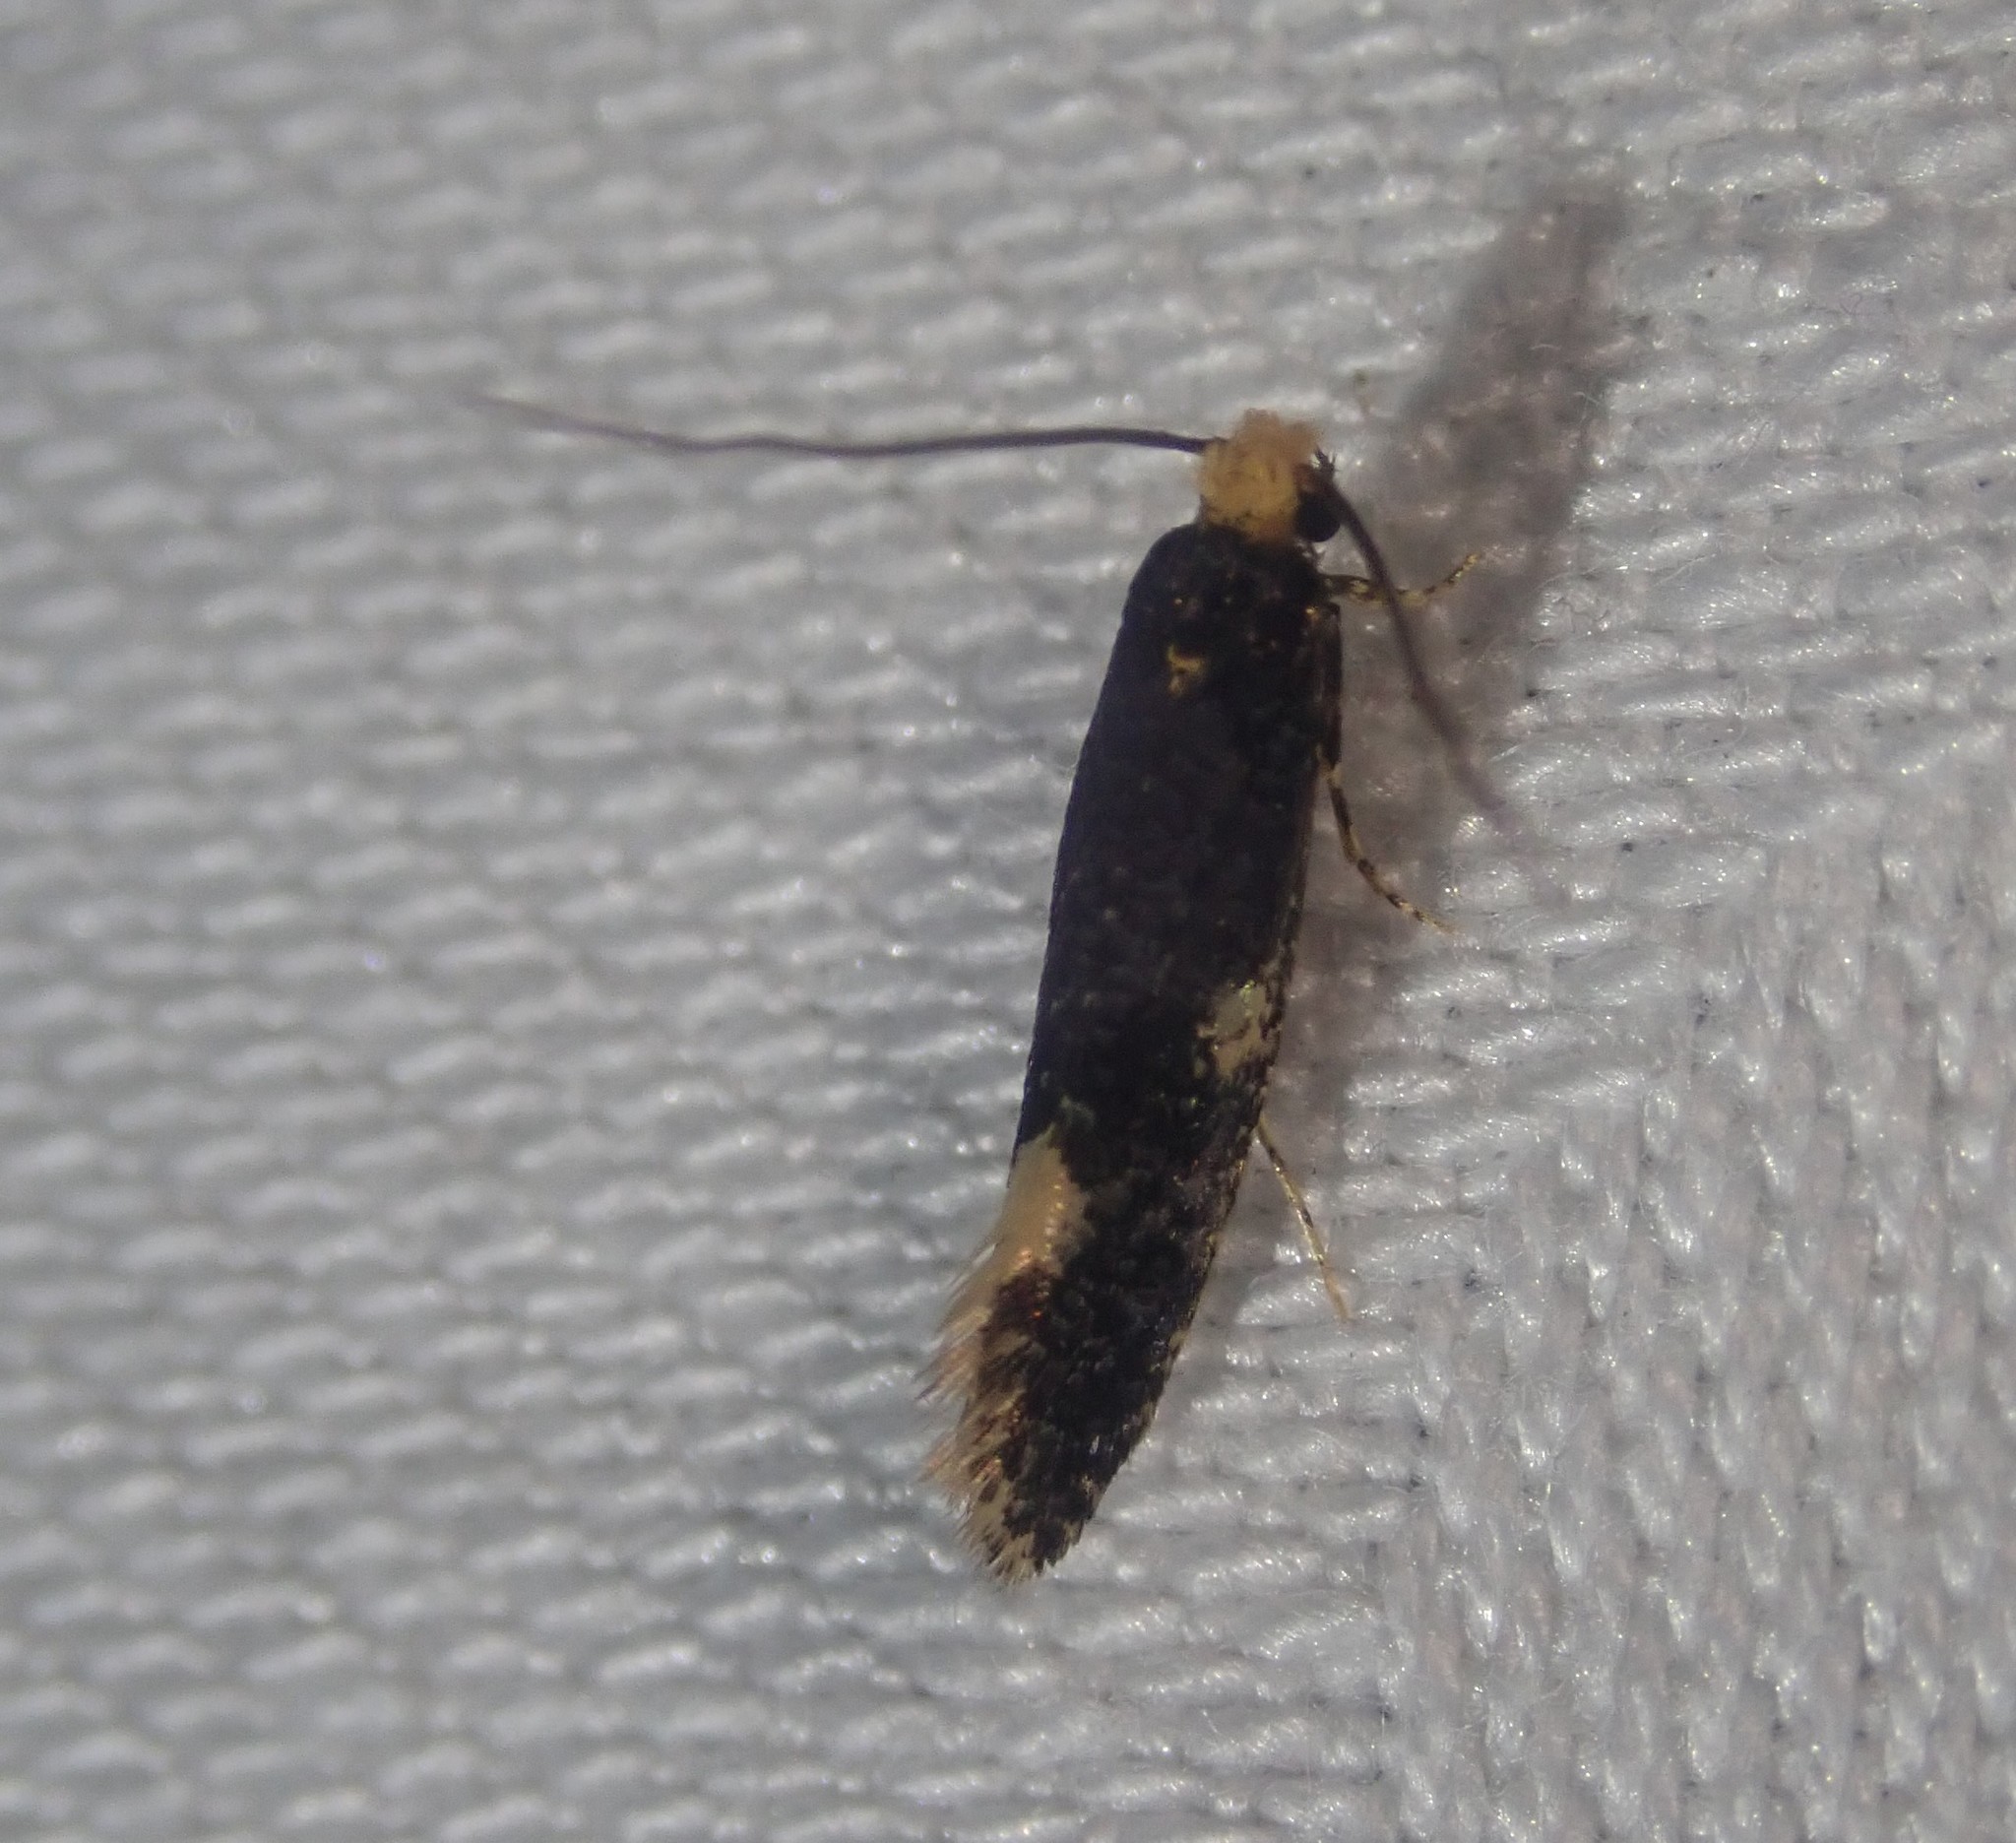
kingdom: Animalia
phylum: Arthropoda
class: Insecta
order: Lepidoptera
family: Tineidae
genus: Monopis
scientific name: Monopis weaverella
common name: Carrion moth
